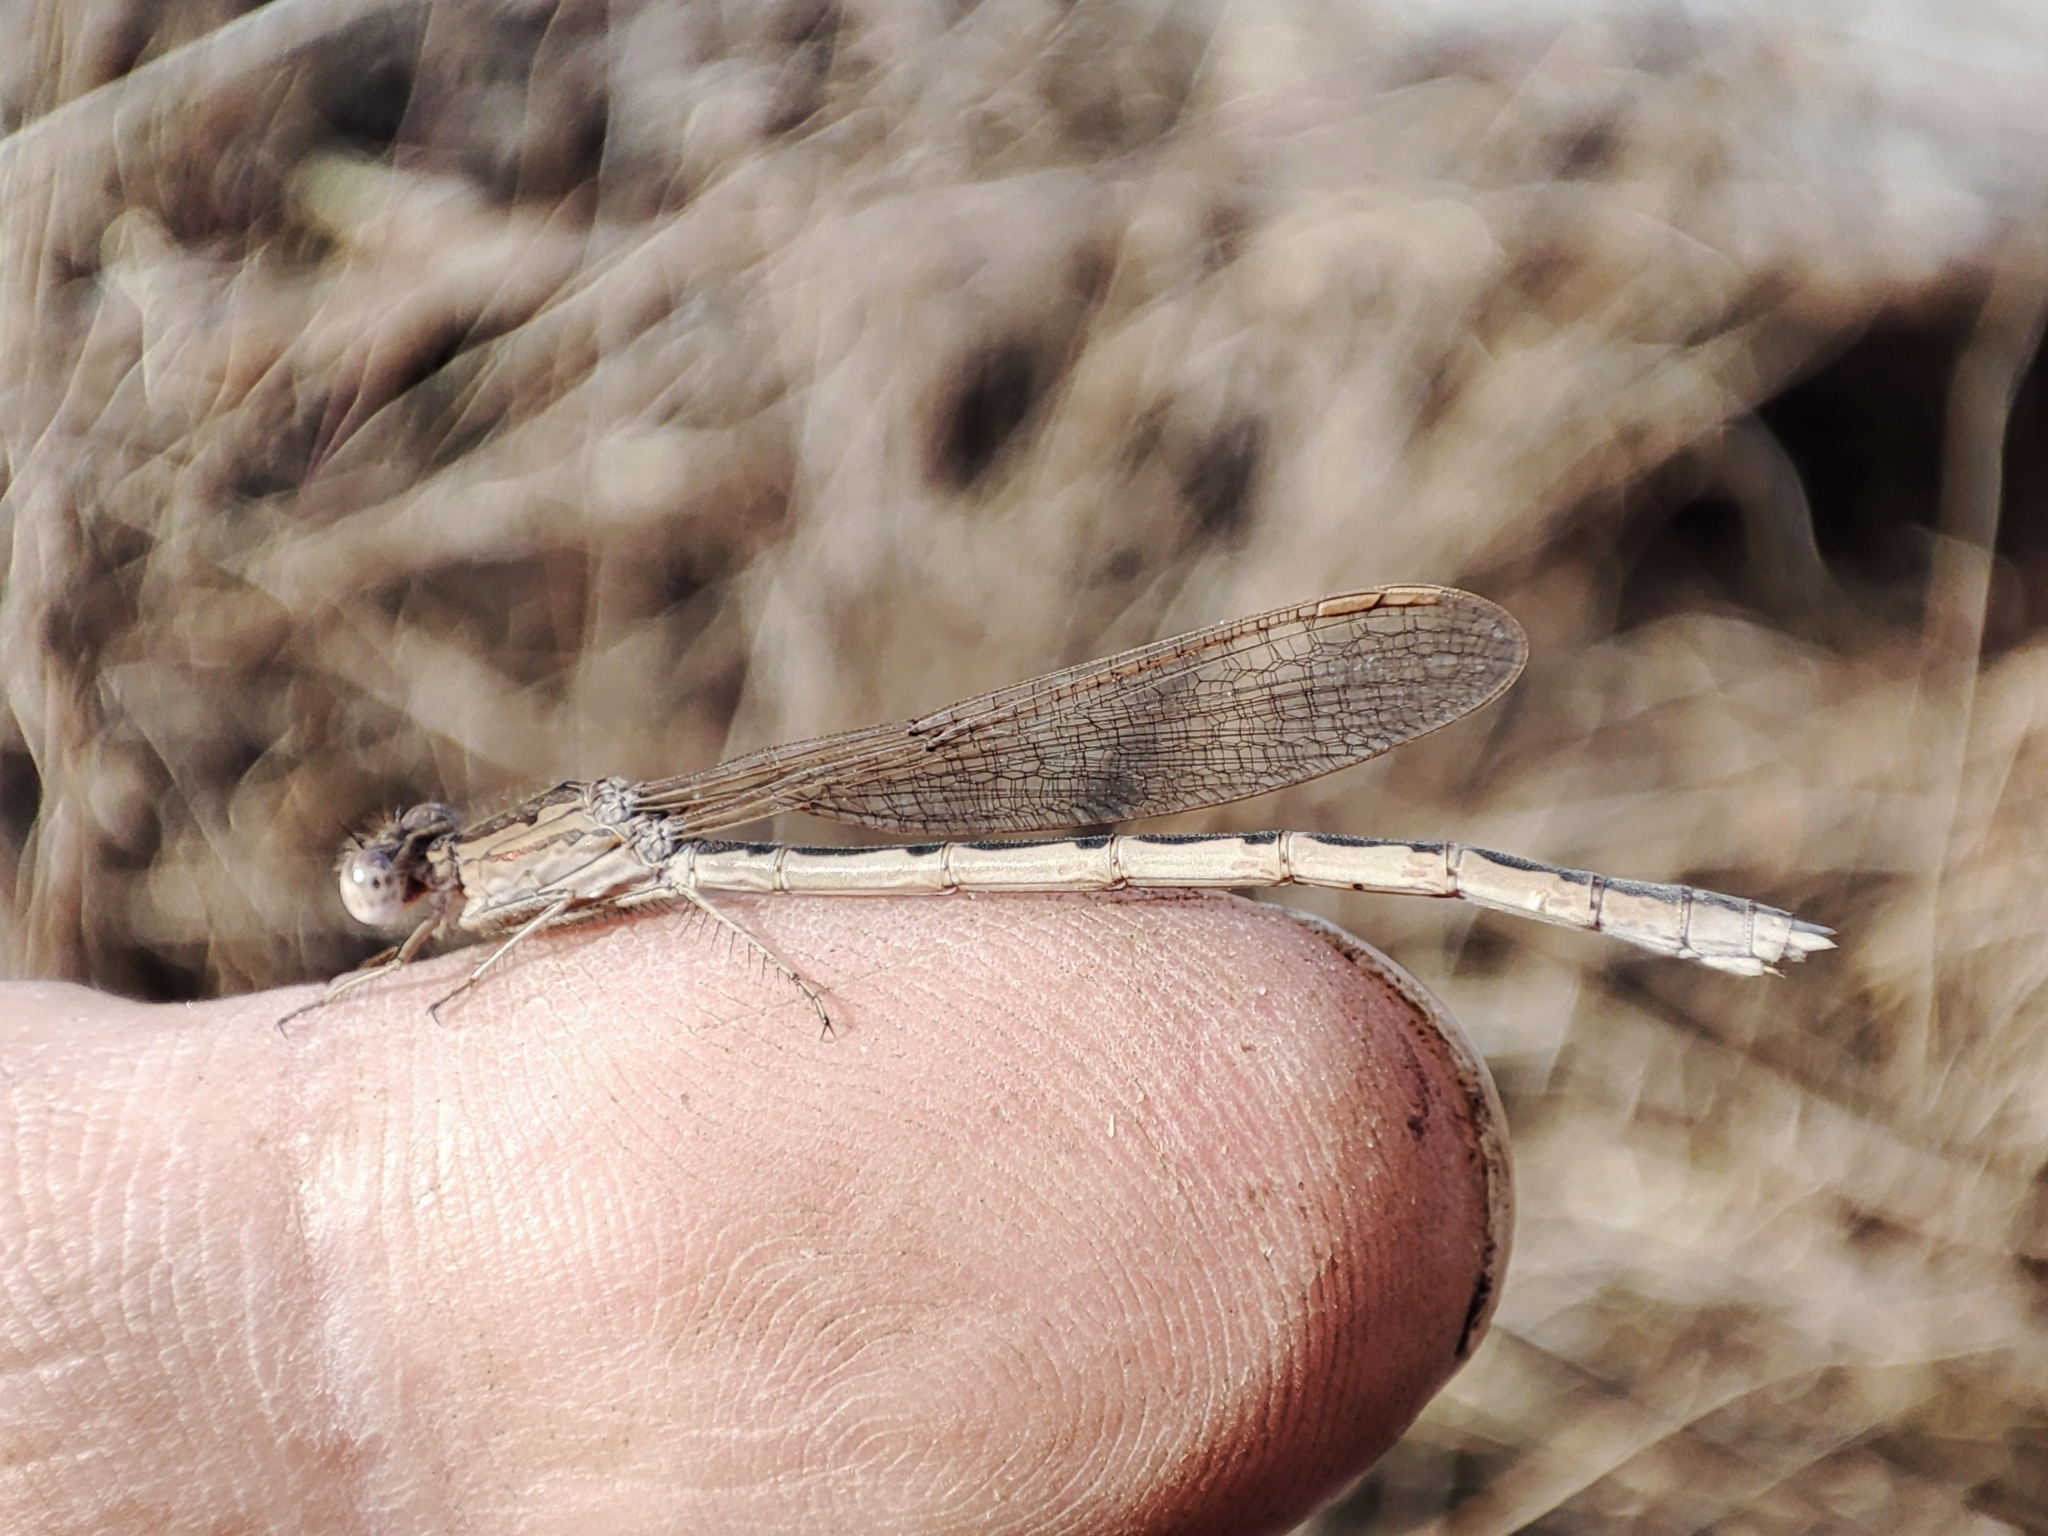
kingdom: Animalia
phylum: Arthropoda
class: Insecta
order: Odonata
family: Lestidae
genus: Sympecma
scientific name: Sympecma paedisca
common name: Siberian winter damsel
